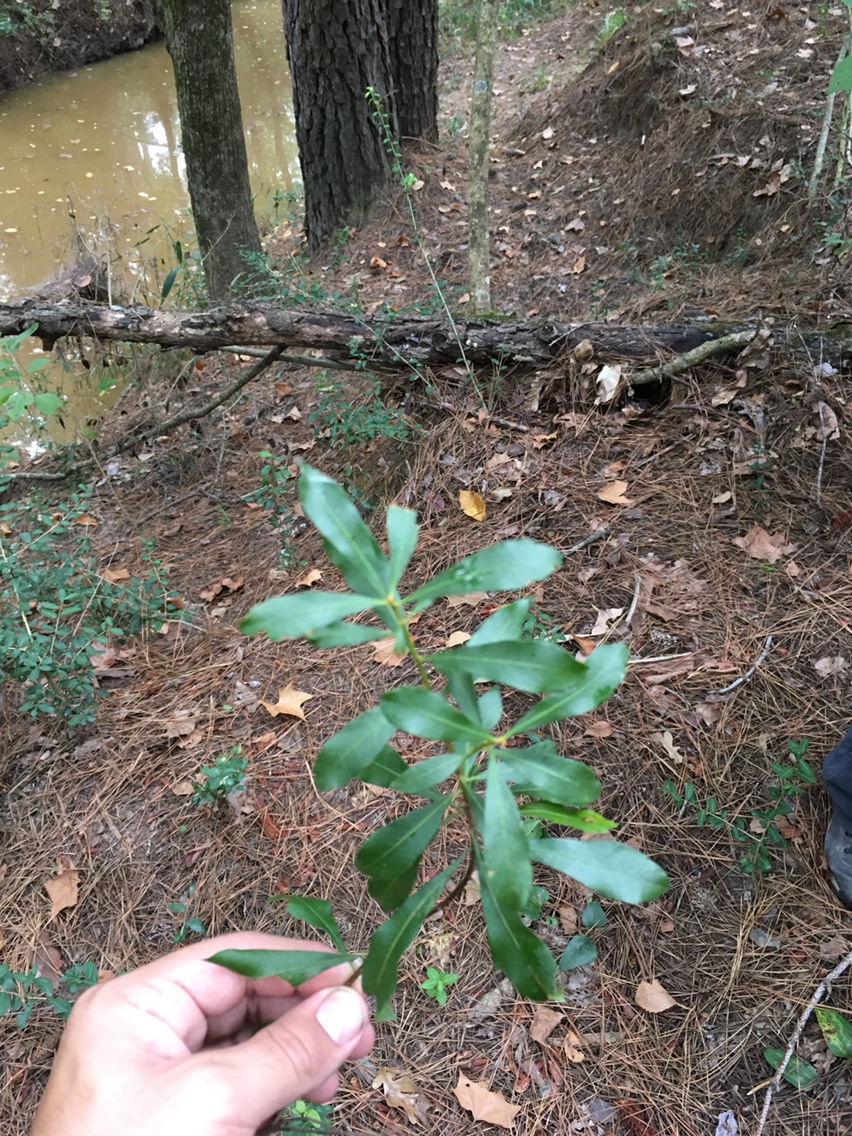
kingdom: Plantae
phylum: Tracheophyta
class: Magnoliopsida
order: Fagales
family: Myricaceae
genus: Morella
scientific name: Morella cerifera
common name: Wax myrtle
